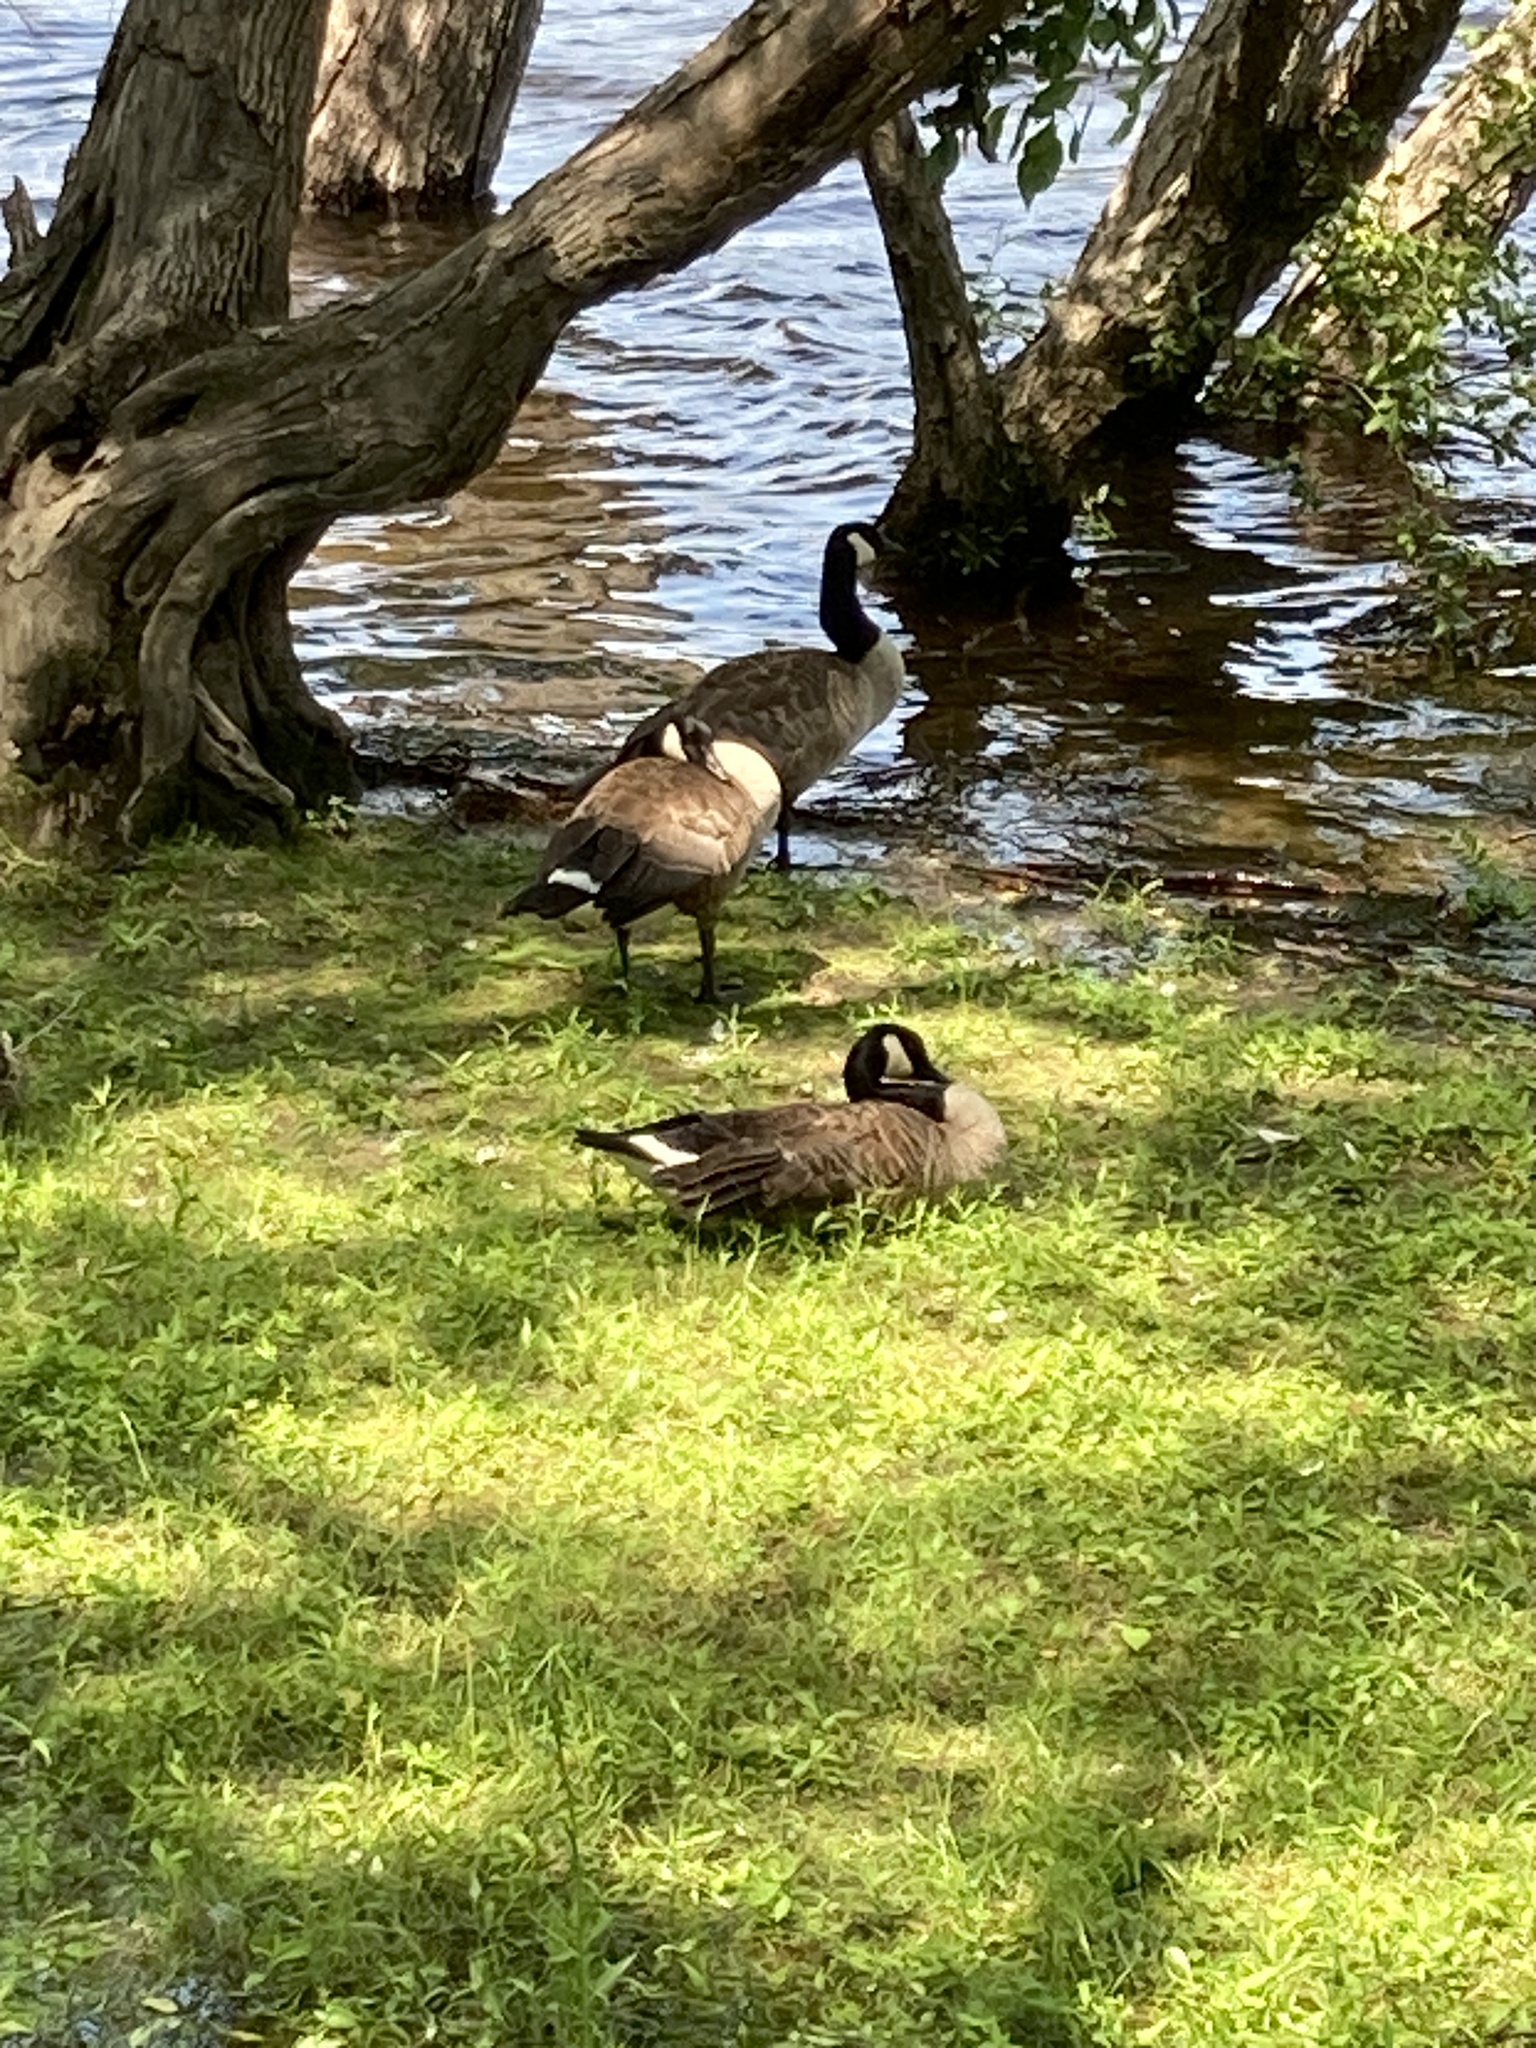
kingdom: Animalia
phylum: Chordata
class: Aves
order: Anseriformes
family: Anatidae
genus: Branta
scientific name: Branta canadensis
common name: Canada goose
